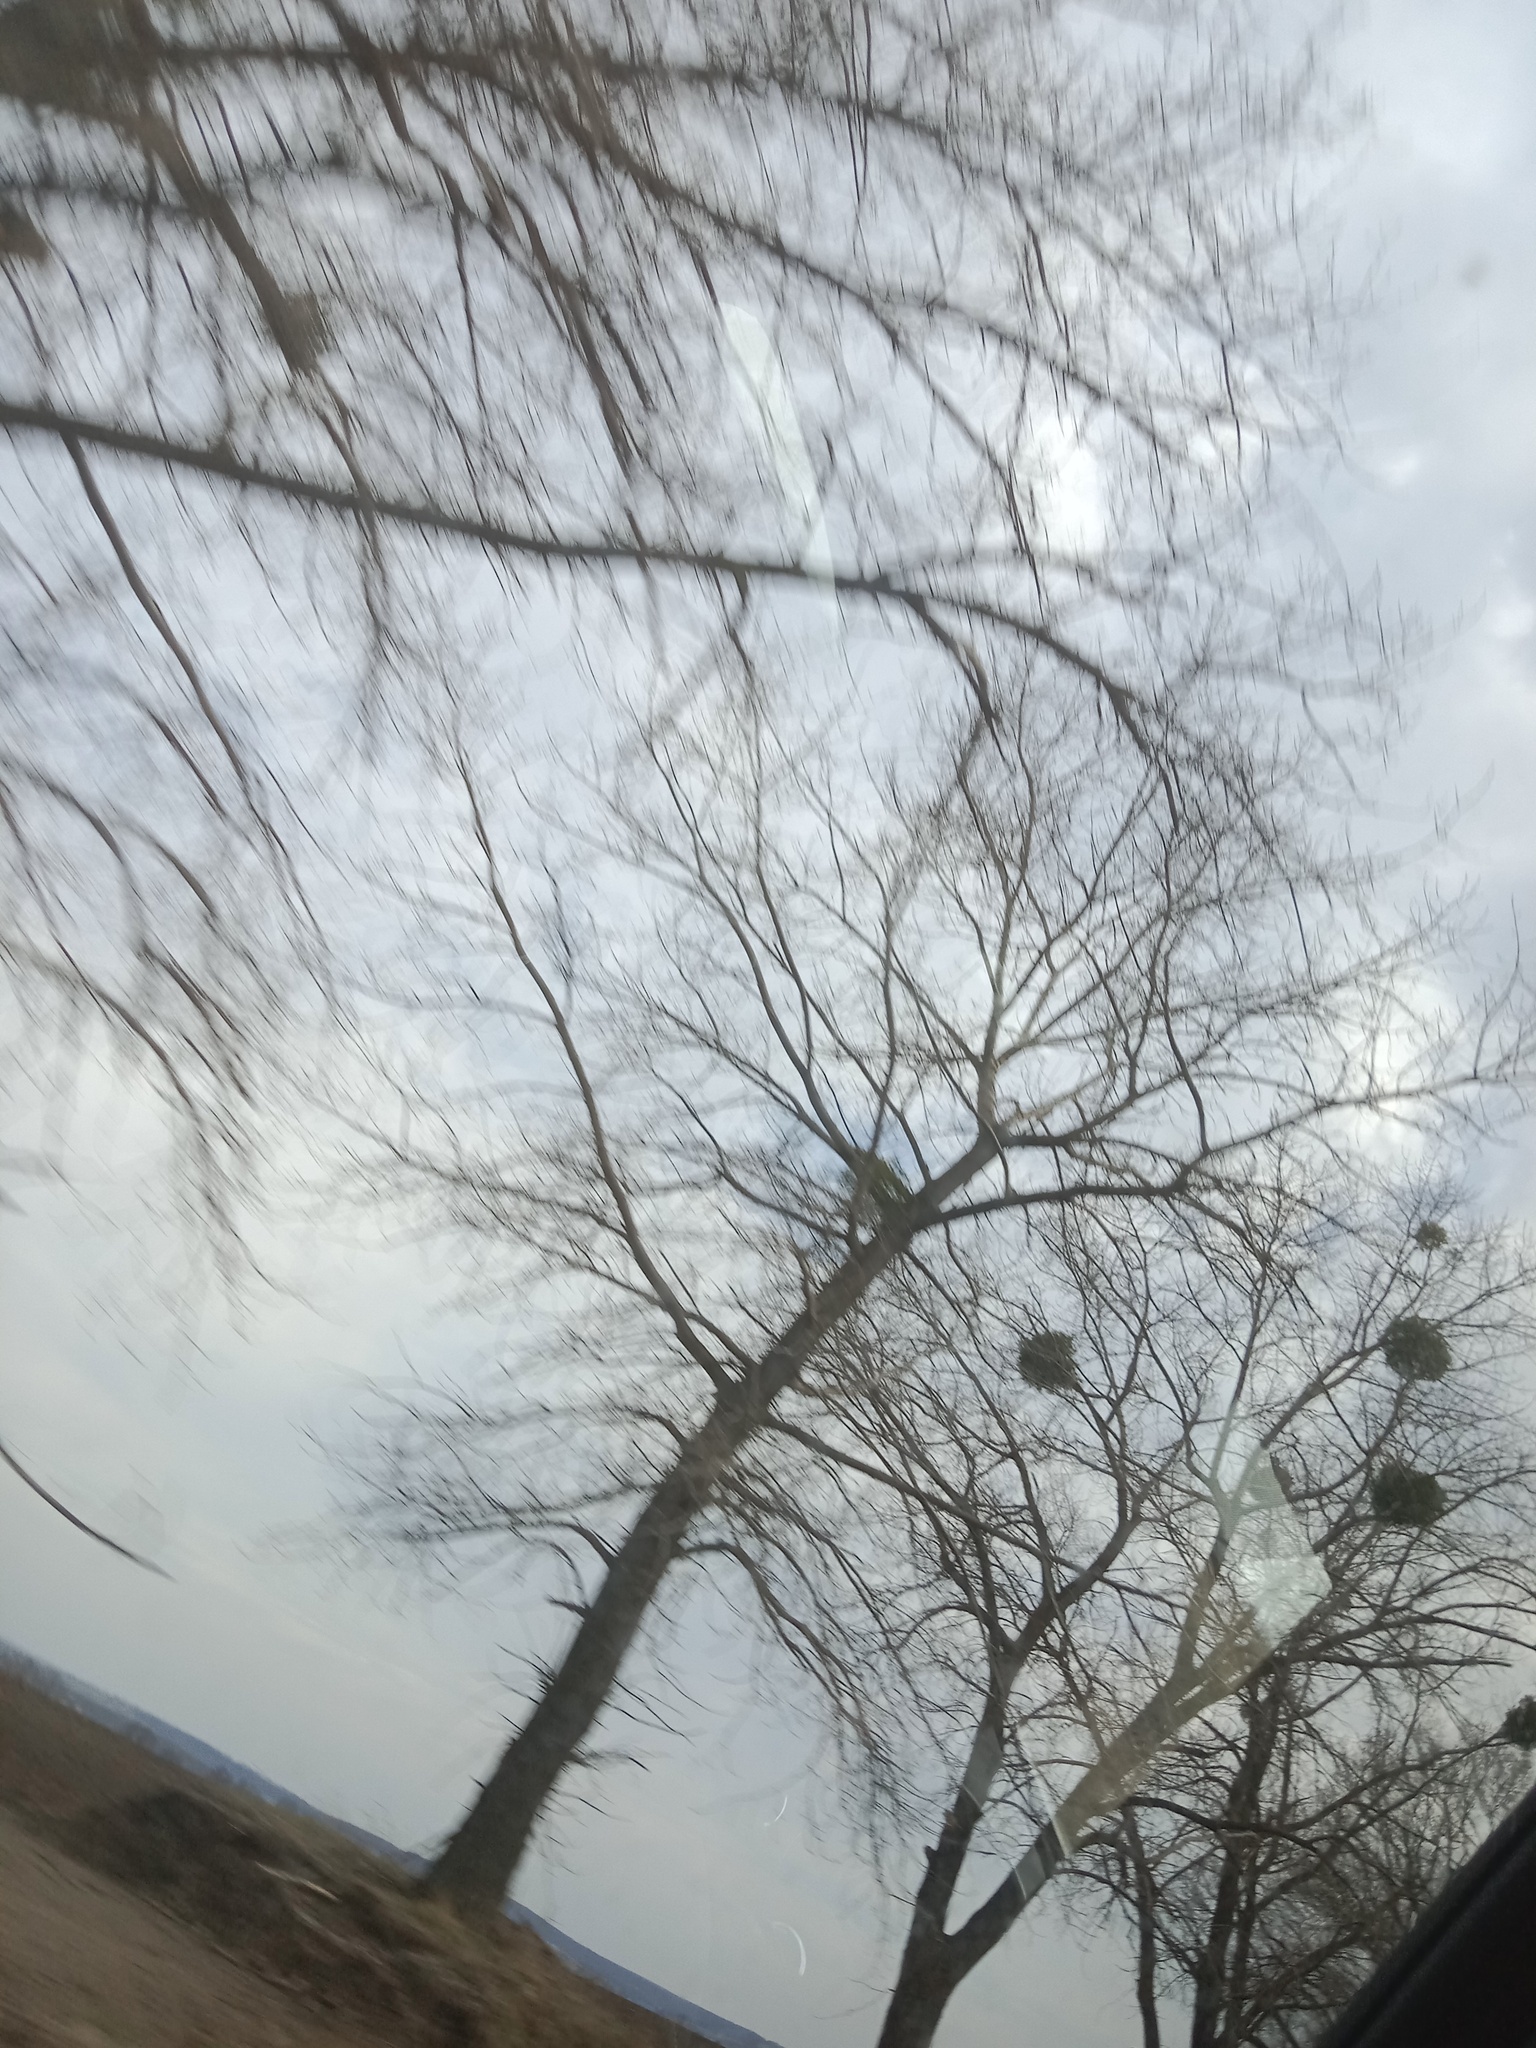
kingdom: Plantae
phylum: Tracheophyta
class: Magnoliopsida
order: Santalales
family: Viscaceae
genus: Viscum
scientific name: Viscum album
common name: Mistletoe
